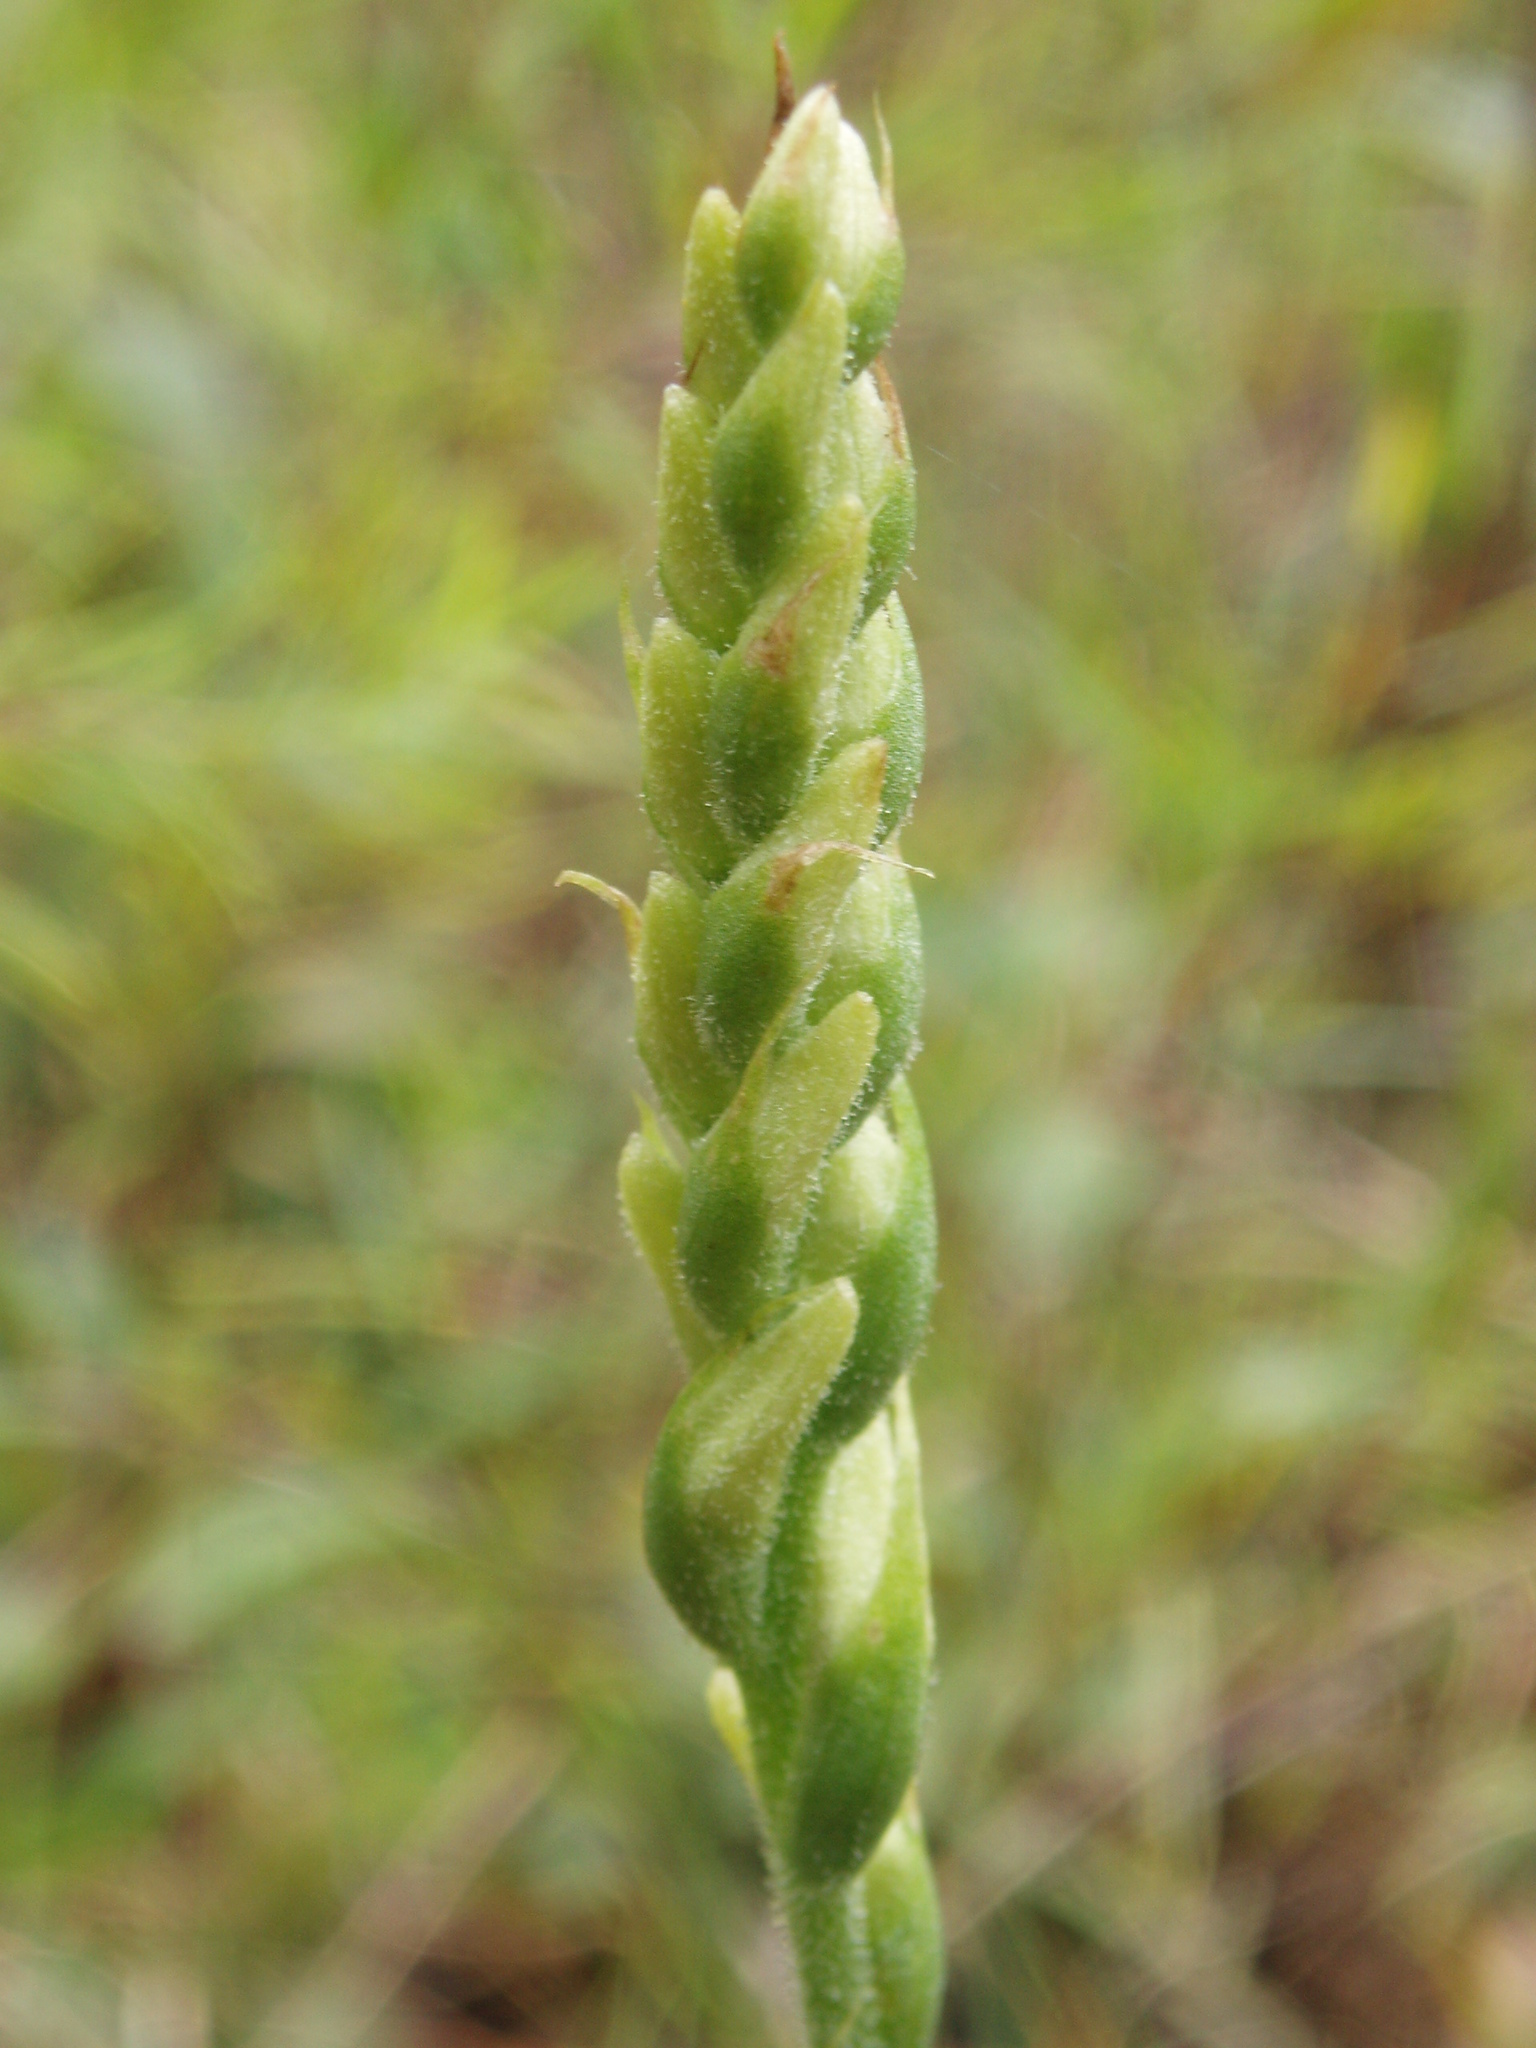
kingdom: Plantae
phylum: Tracheophyta
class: Liliopsida
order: Asparagales
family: Orchidaceae
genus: Spiranthes
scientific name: Spiranthes magnicamporum
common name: Great plains ladies'-tresses
